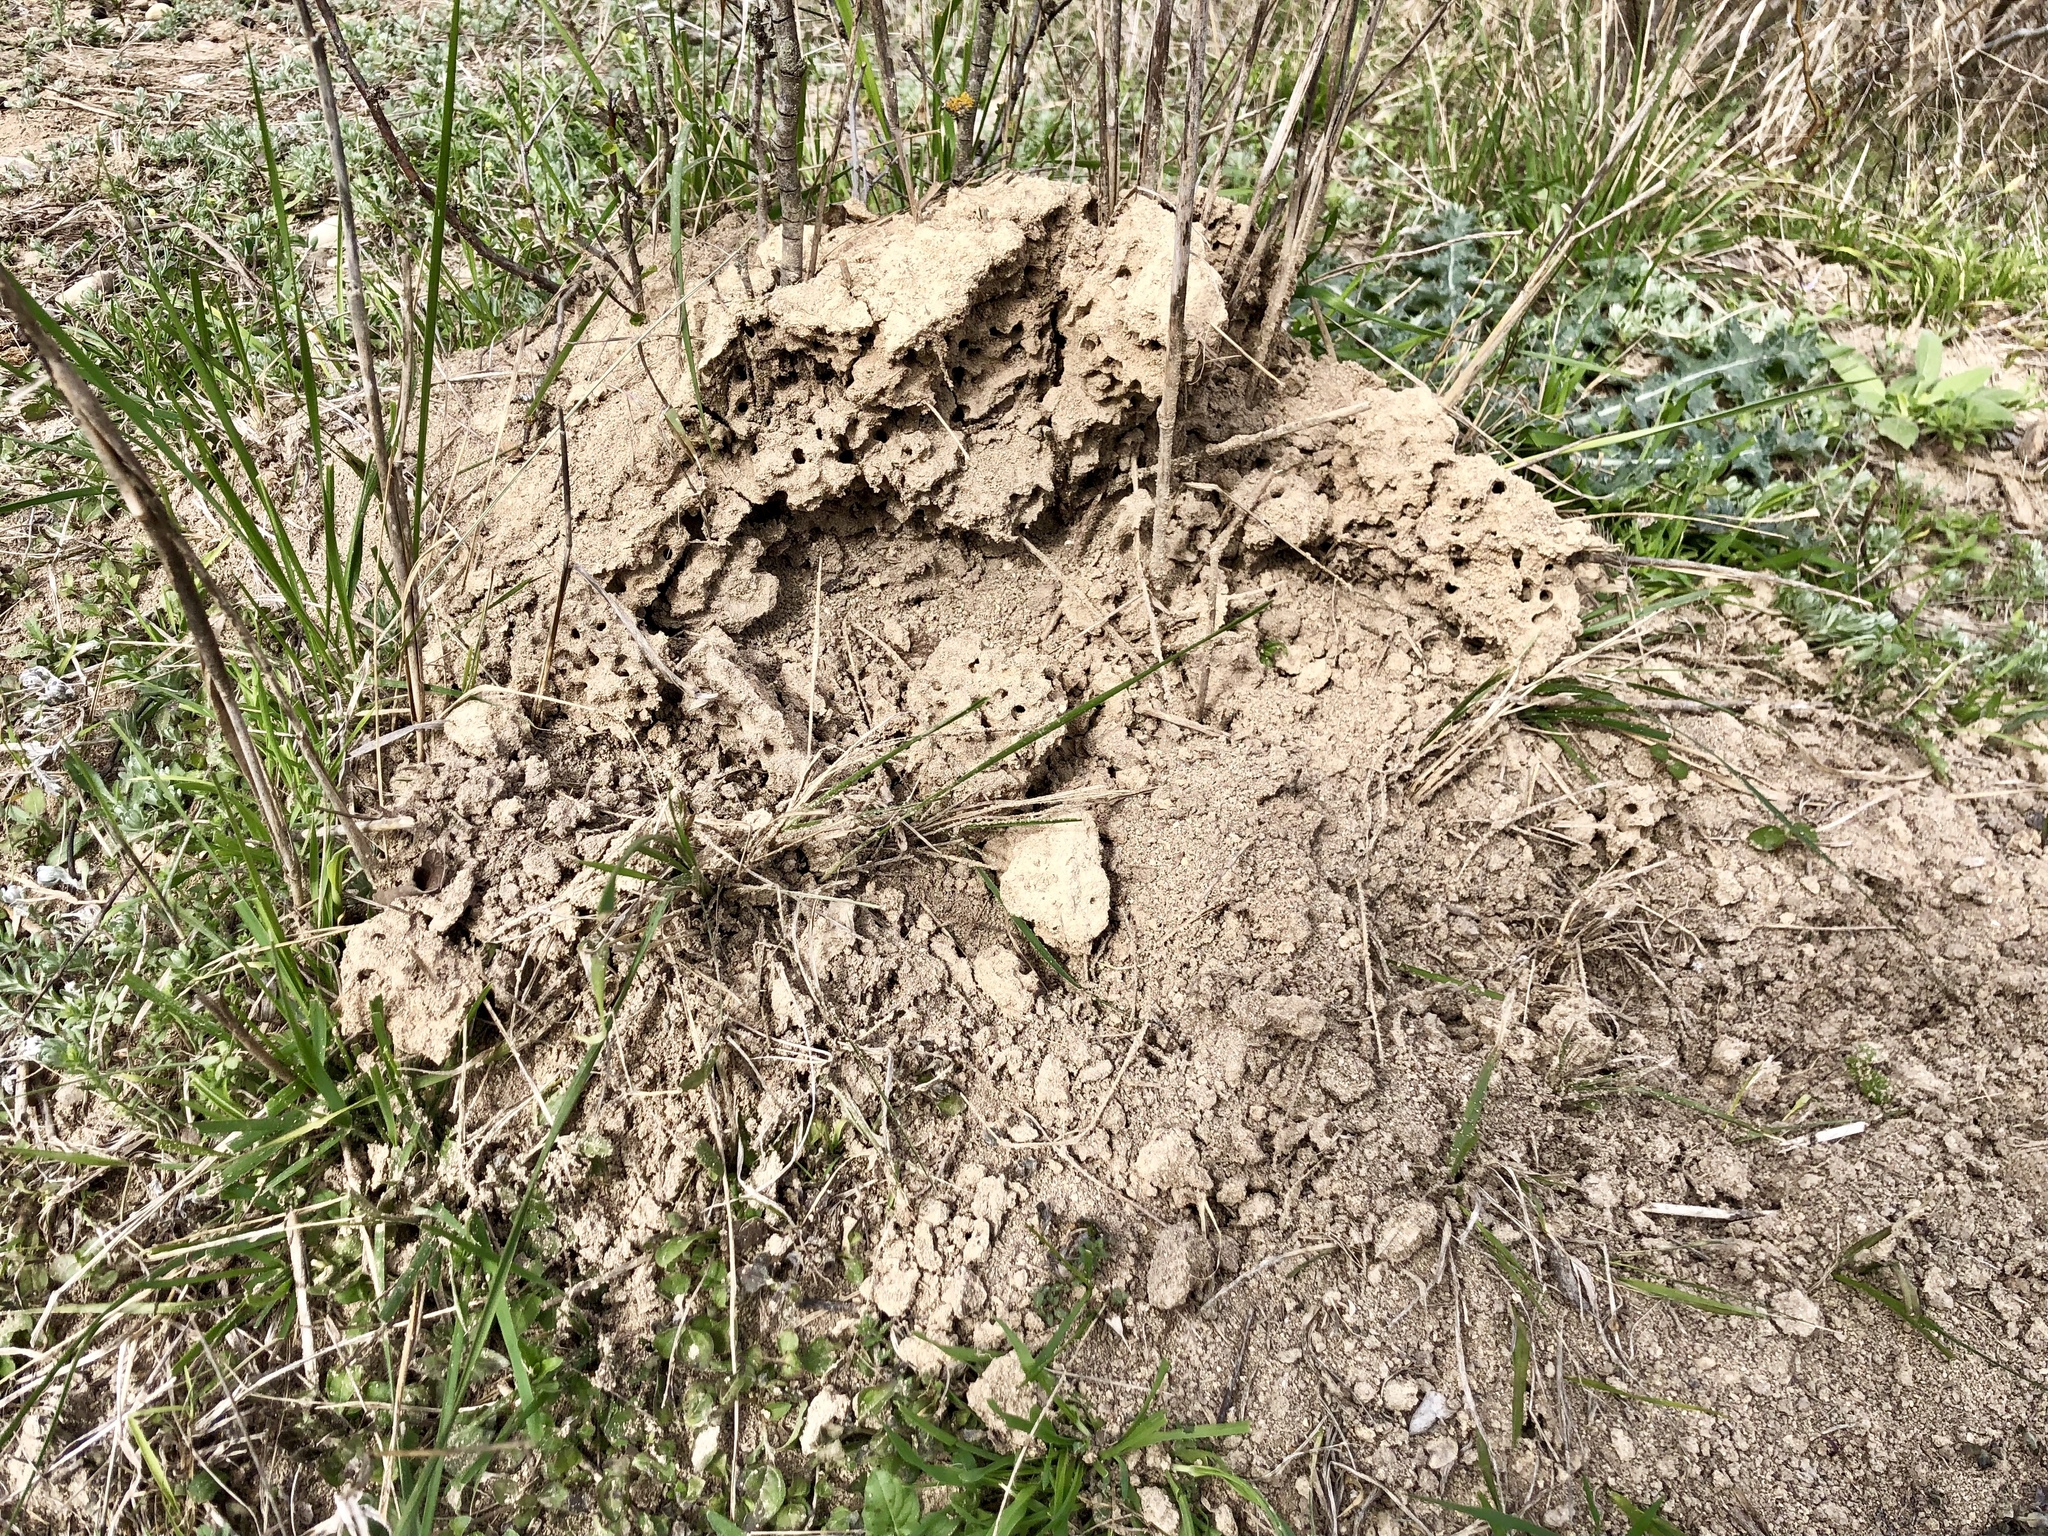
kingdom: Animalia
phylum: Arthropoda
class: Insecta
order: Hymenoptera
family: Formicidae
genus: Solenopsis
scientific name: Solenopsis invicta
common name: Red imported fire ant
